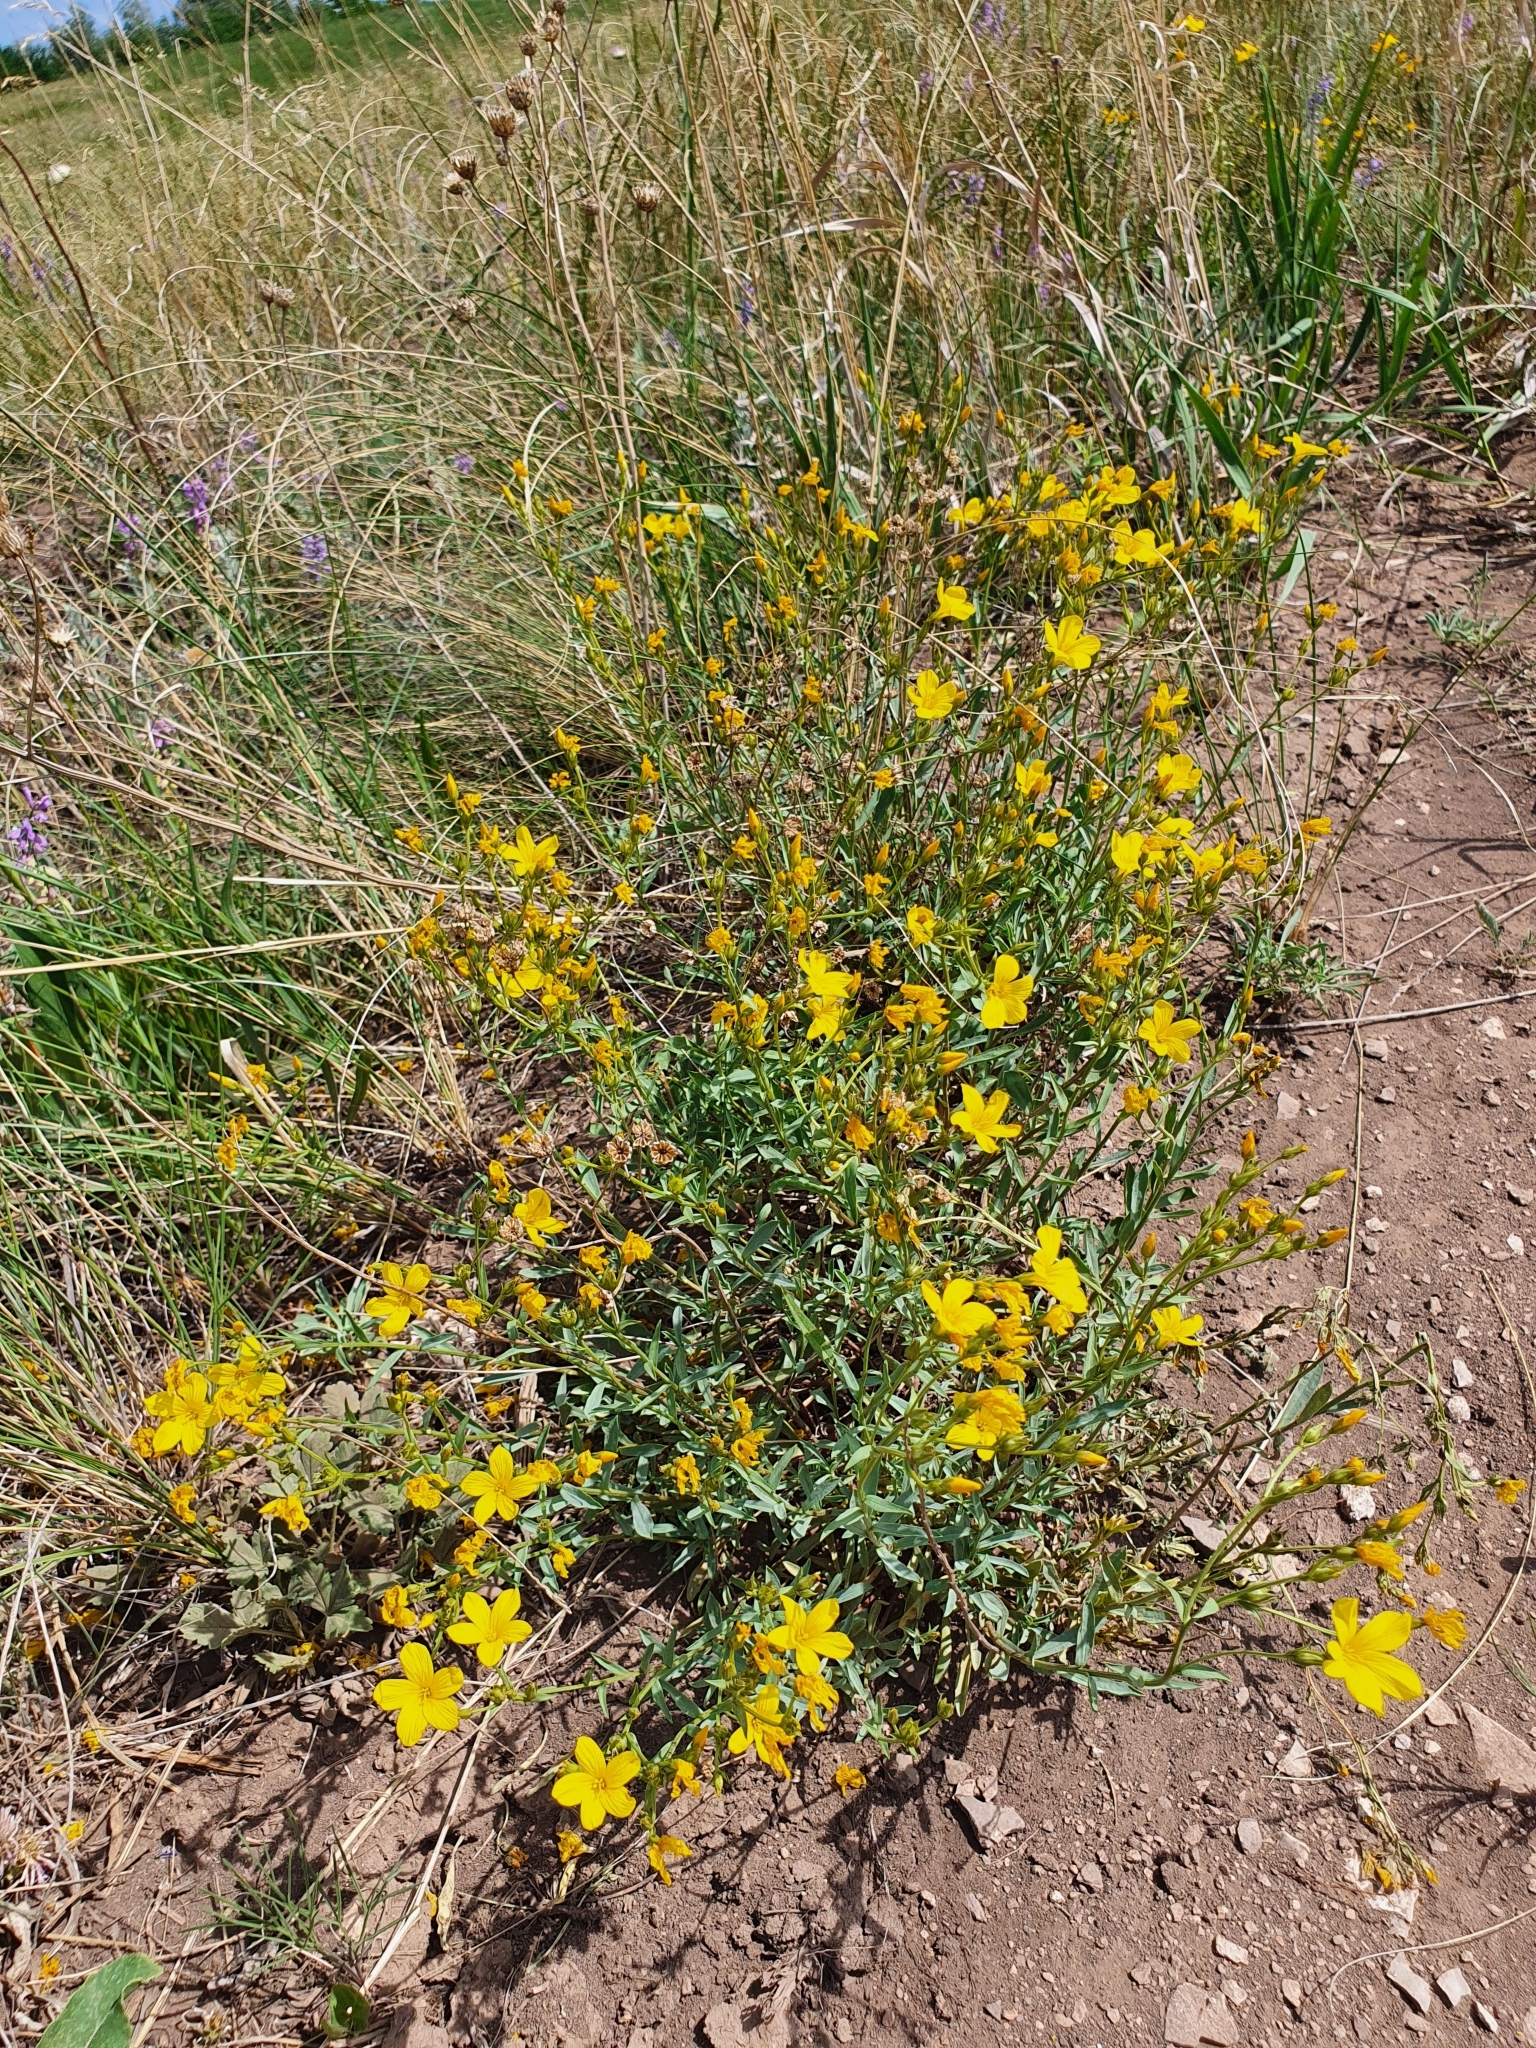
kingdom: Plantae
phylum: Tracheophyta
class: Magnoliopsida
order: Malpighiales
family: Linaceae
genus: Linum
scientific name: Linum ucranicum
